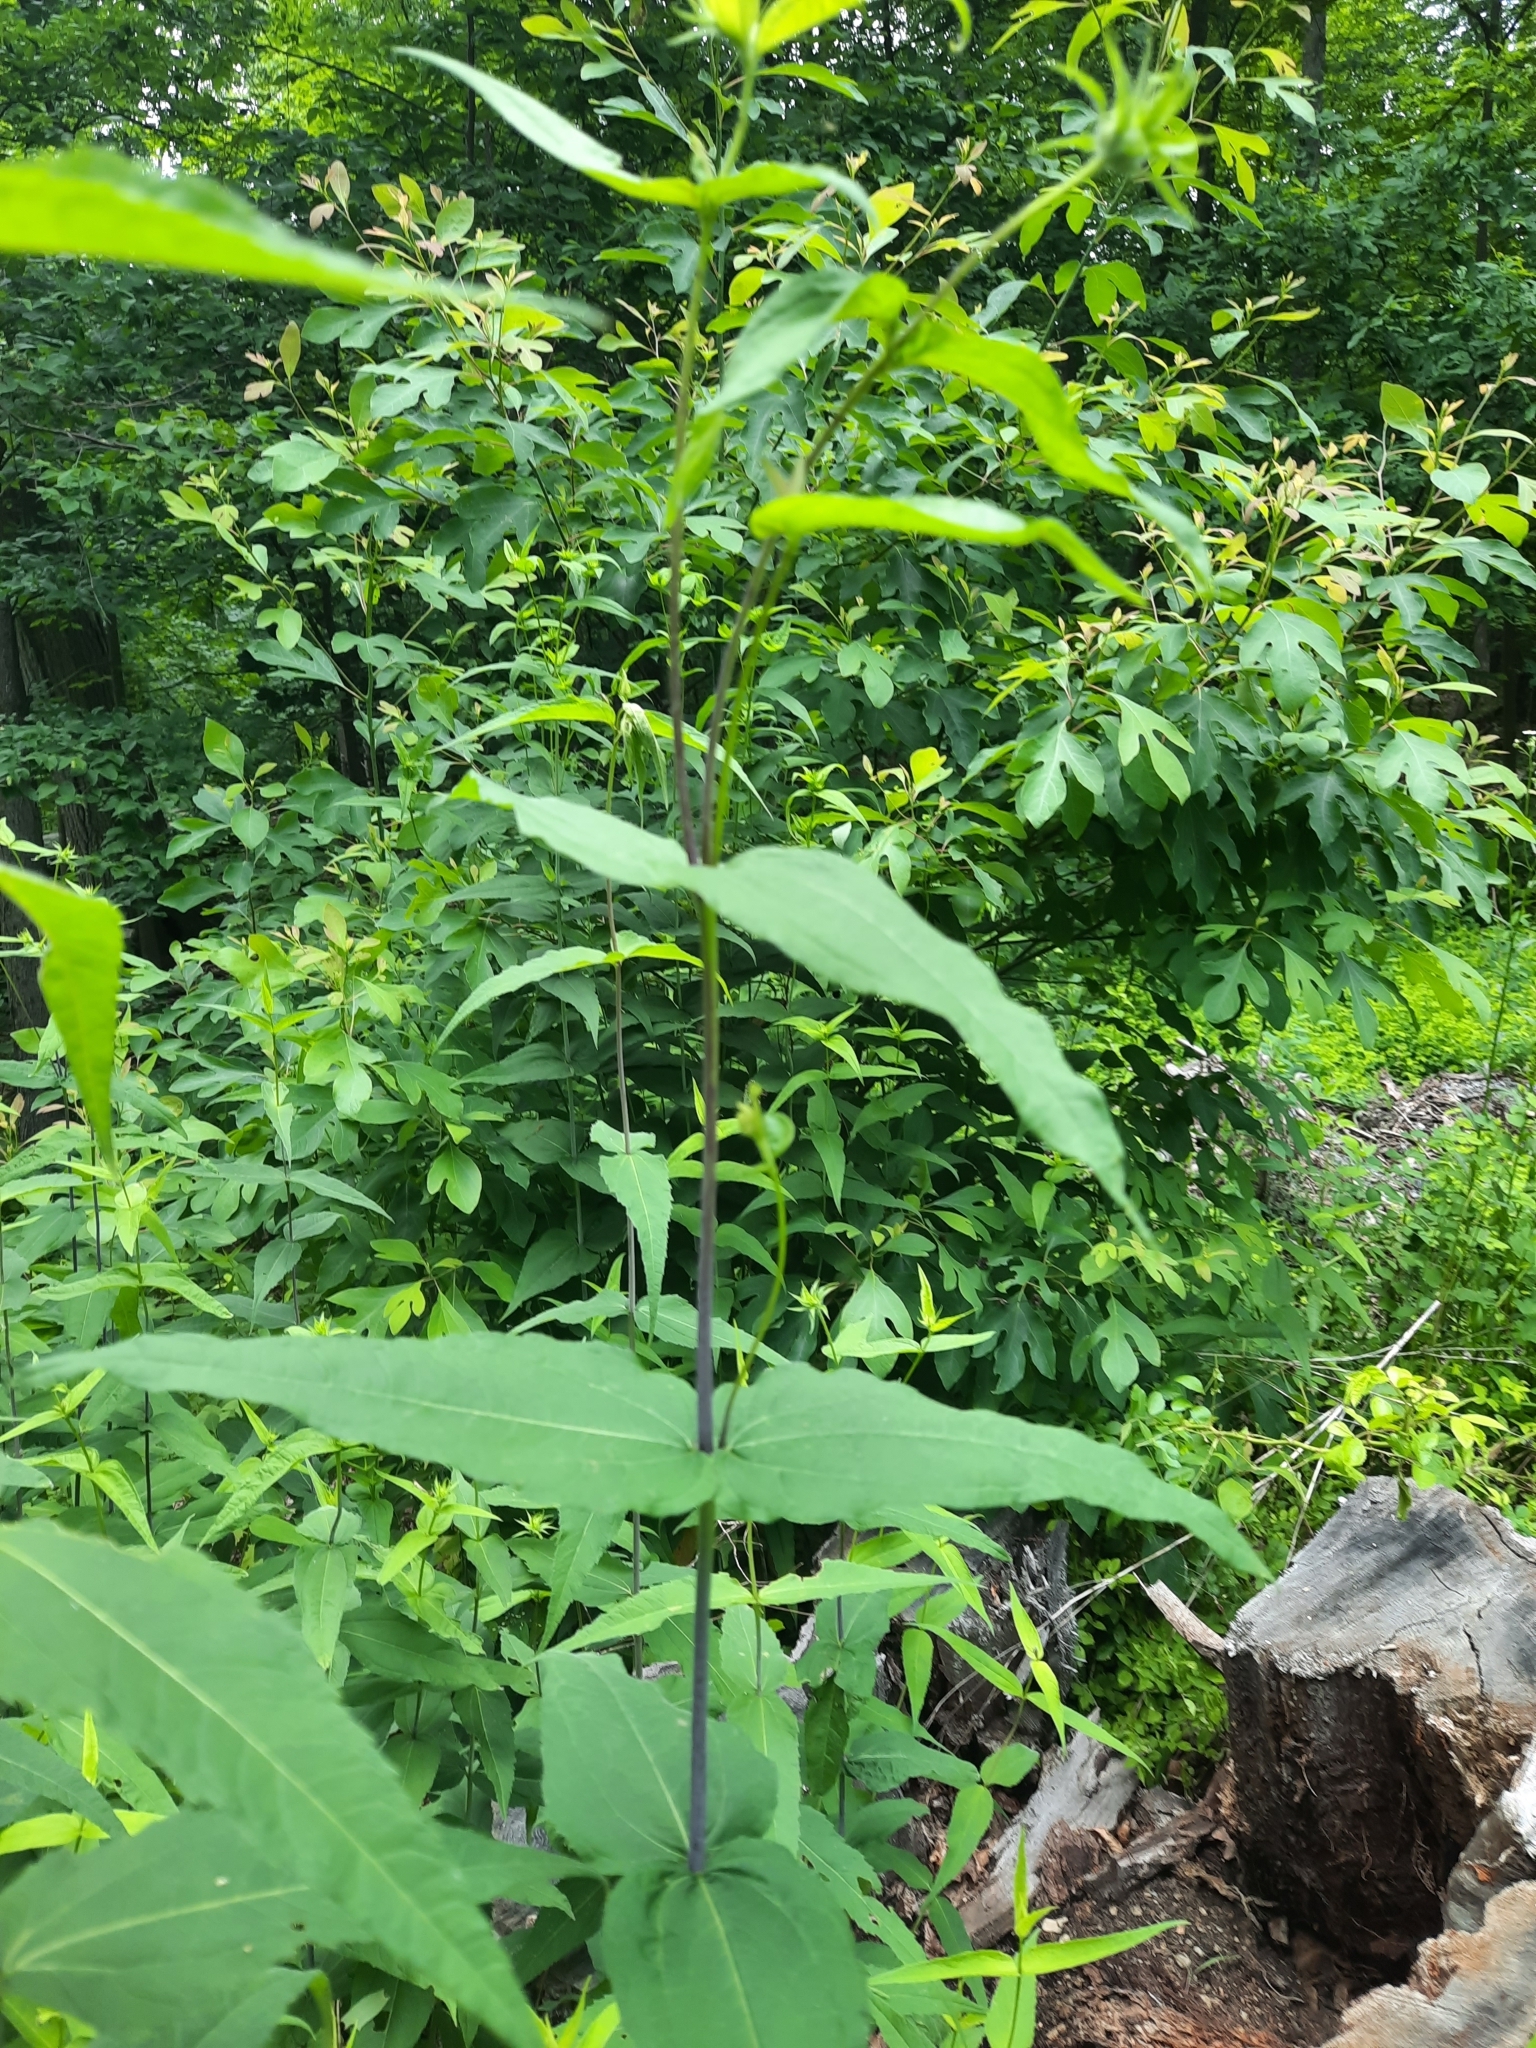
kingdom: Plantae
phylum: Tracheophyta
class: Magnoliopsida
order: Asterales
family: Asteraceae
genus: Helianthus
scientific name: Helianthus divaricatus
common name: Divergent sunflower
